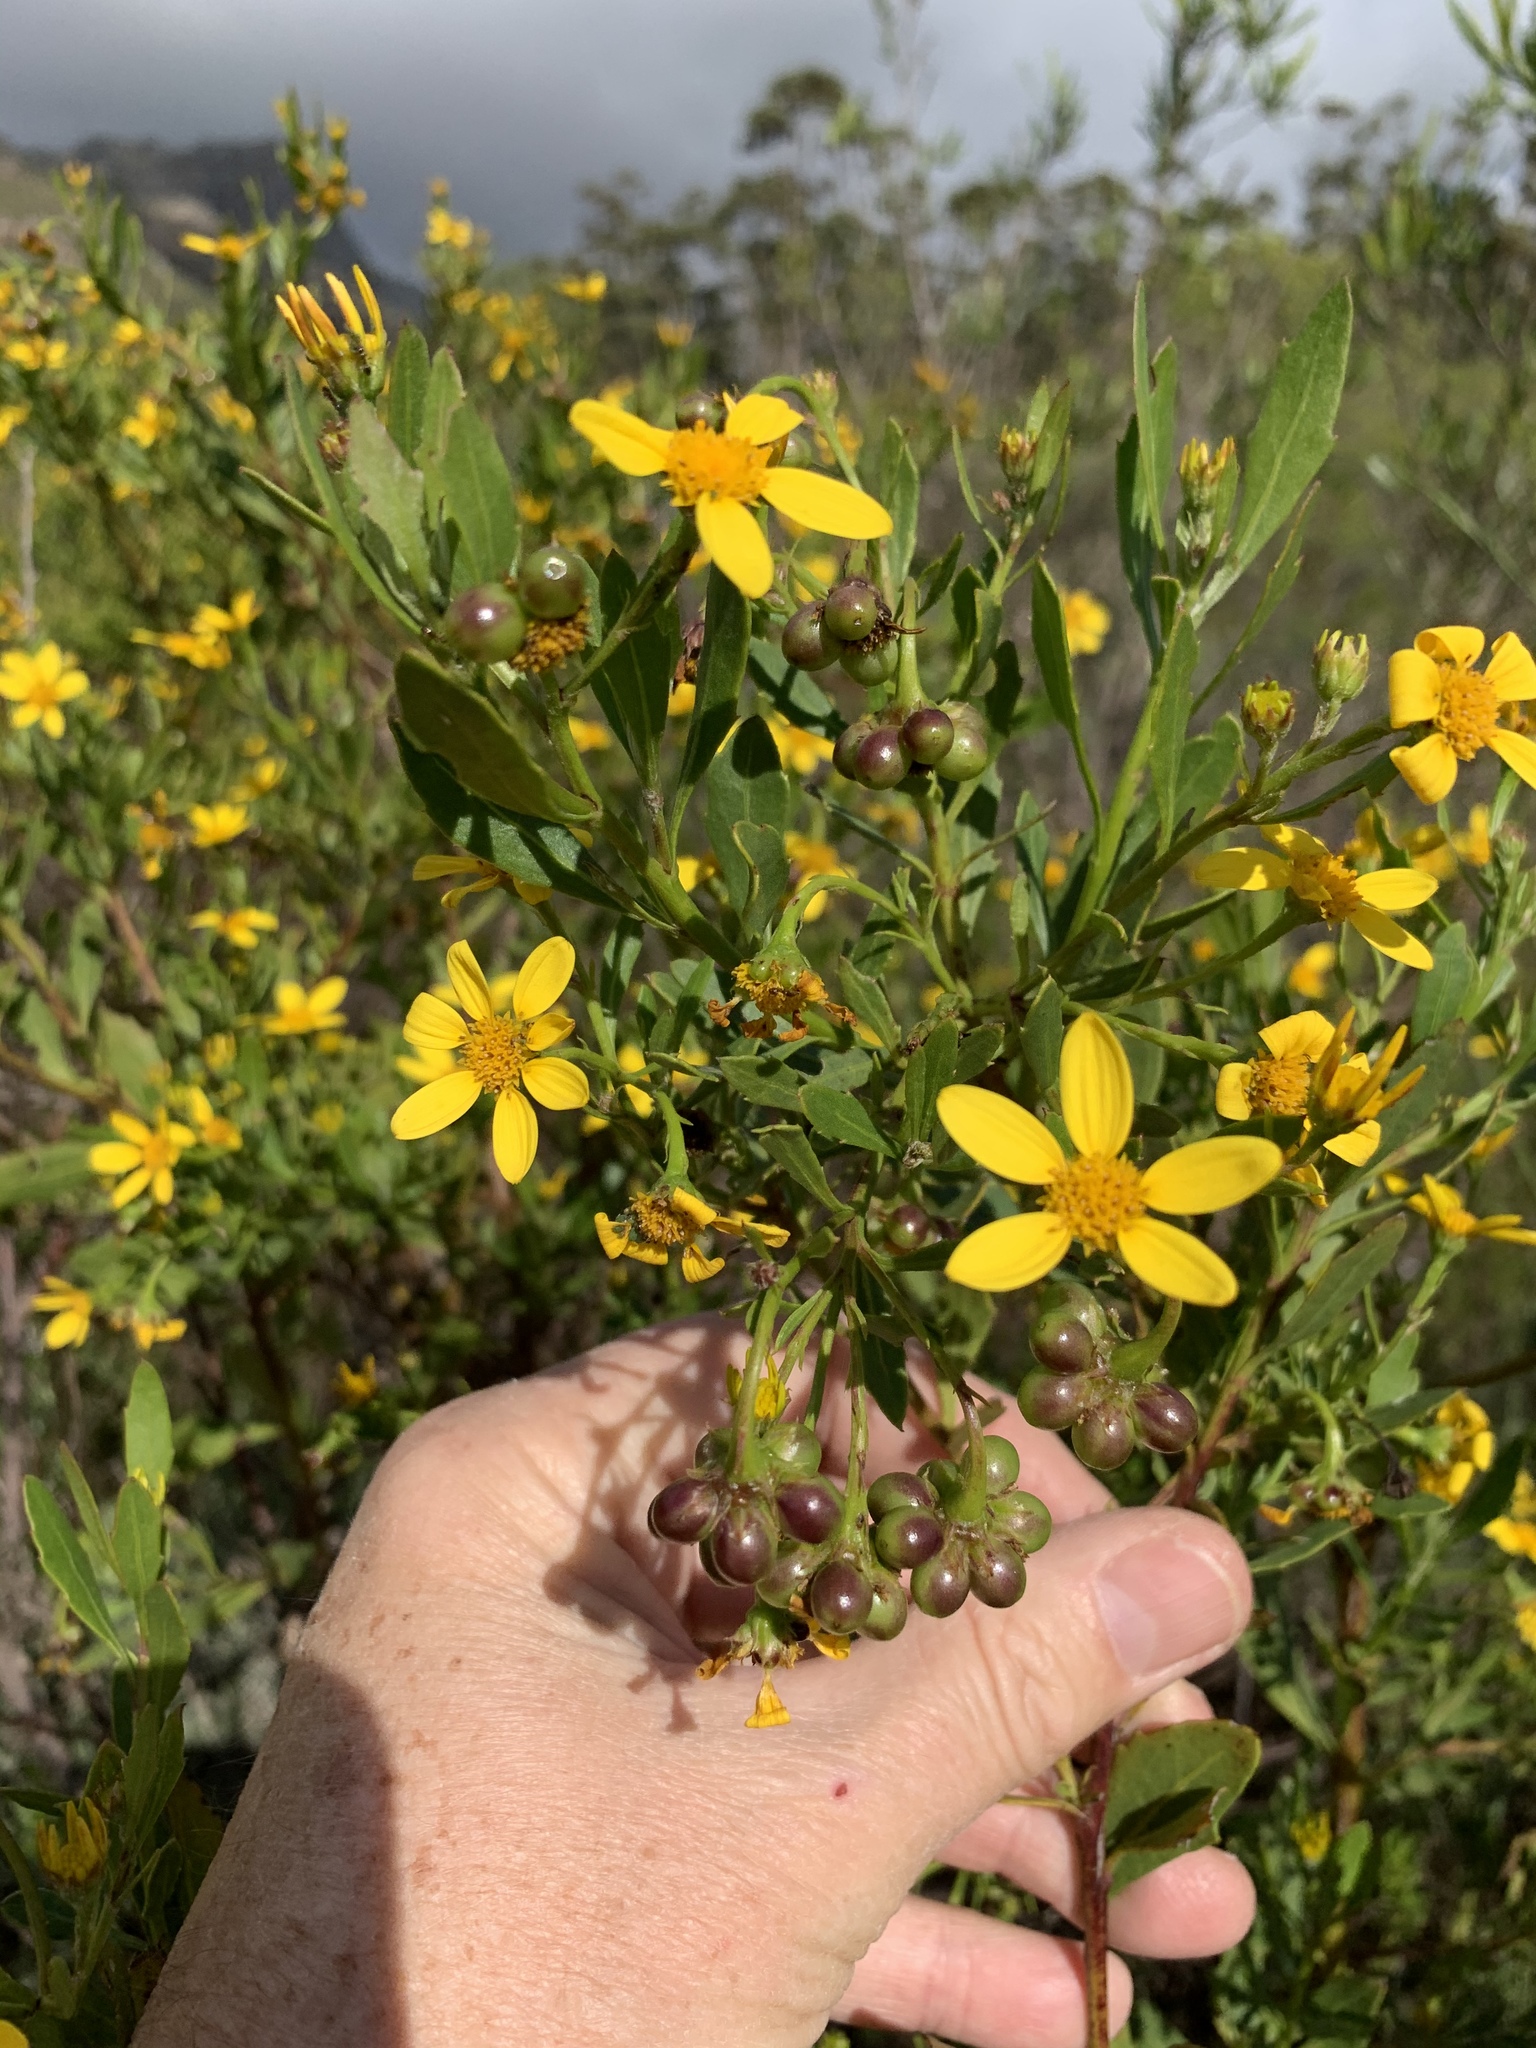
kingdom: Plantae
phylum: Tracheophyta
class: Magnoliopsida
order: Asterales
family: Asteraceae
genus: Osteospermum
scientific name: Osteospermum moniliferum
